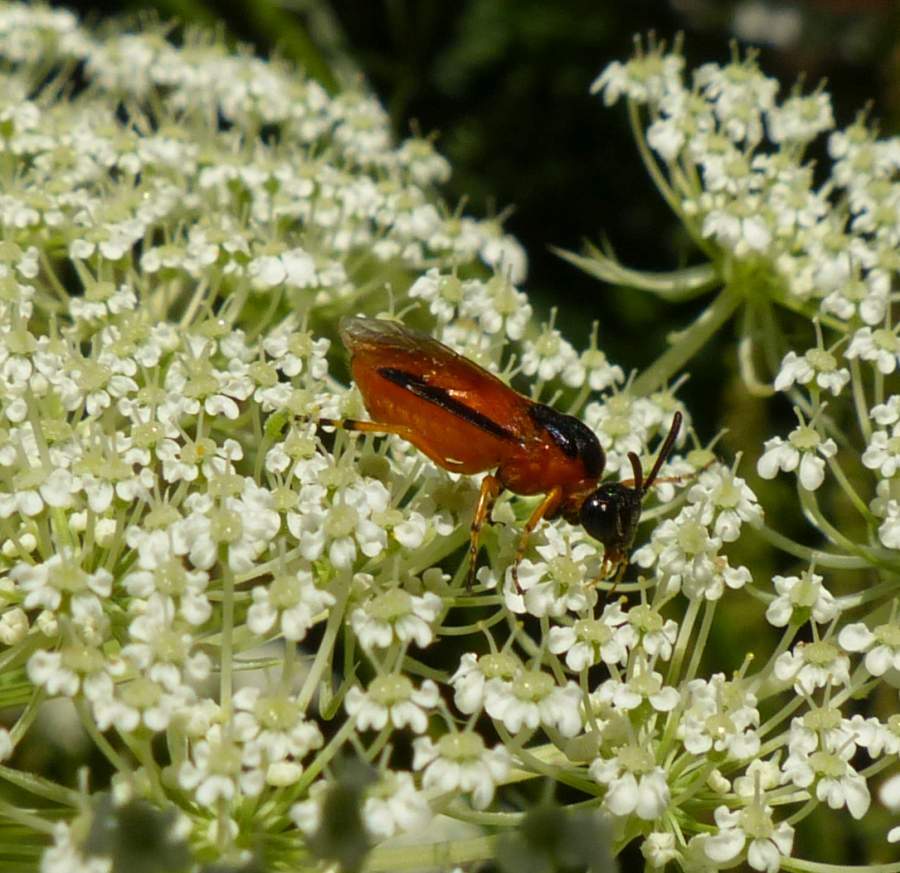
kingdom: Animalia
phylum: Arthropoda
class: Insecta
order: Hymenoptera
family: Argidae
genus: Arge
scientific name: Arge ochropus
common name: Argid sawfly
